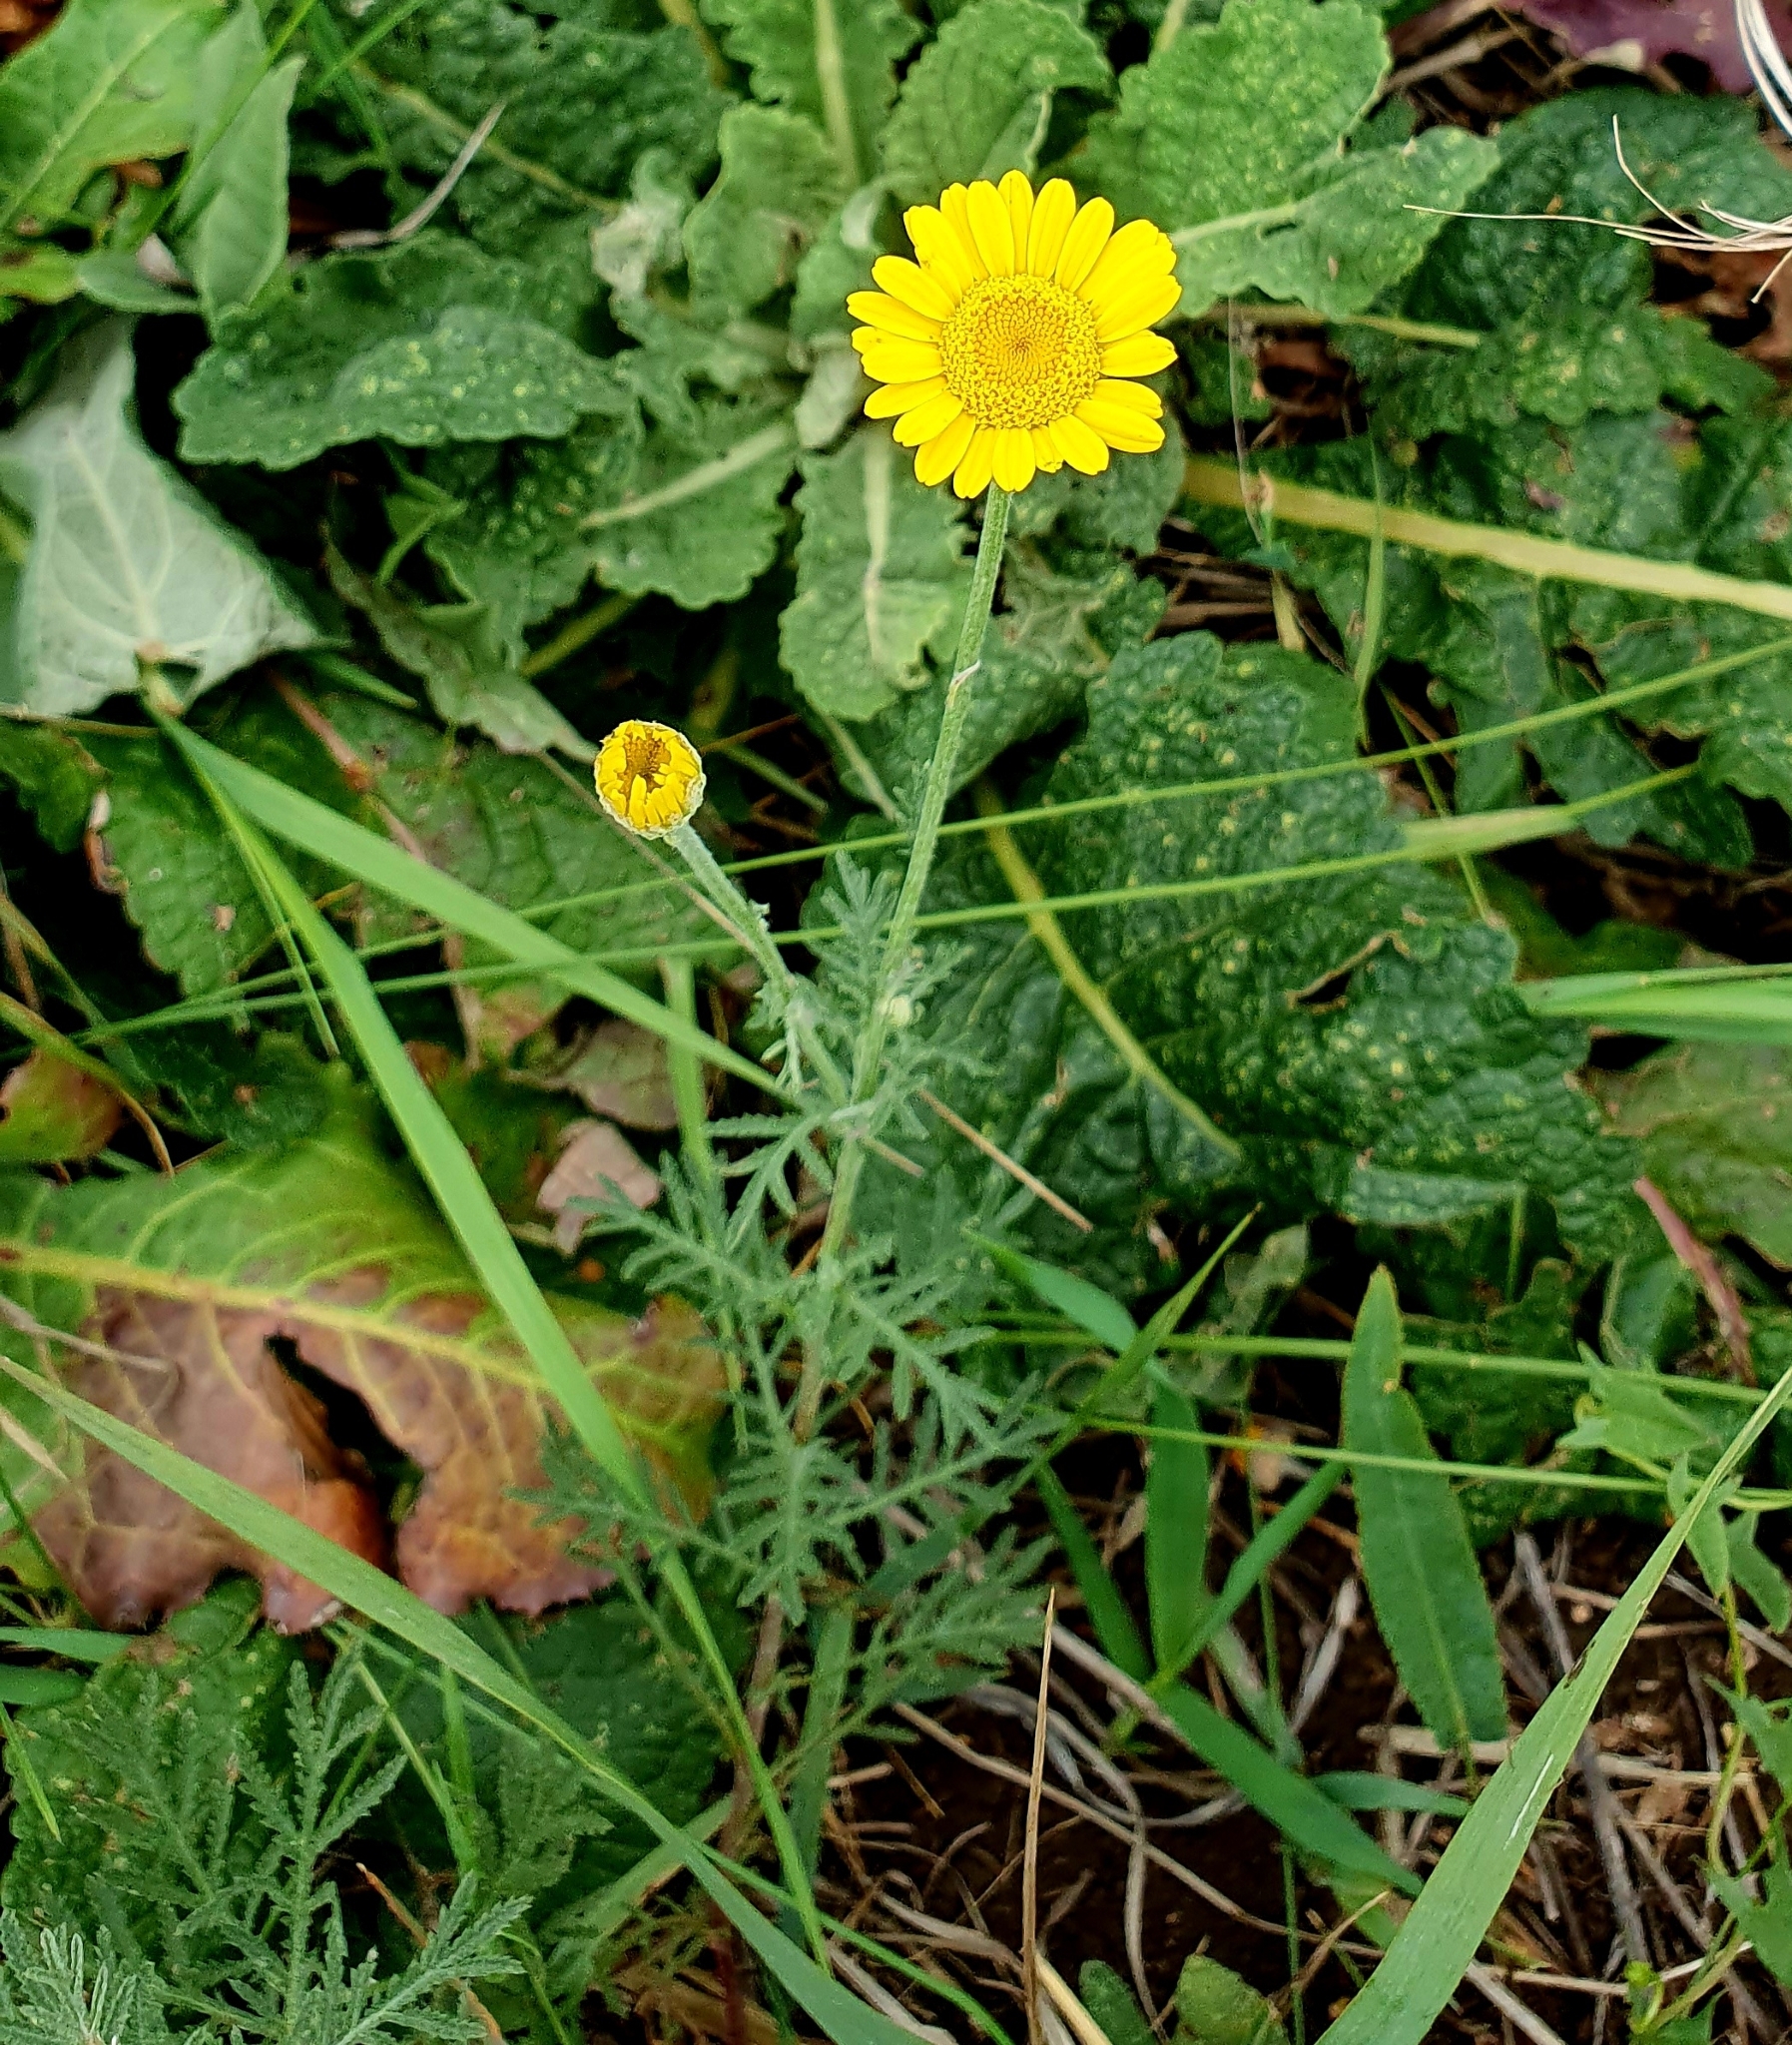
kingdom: Plantae
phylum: Tracheophyta
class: Magnoliopsida
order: Asterales
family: Asteraceae
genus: Cota
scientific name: Cota tinctoria
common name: Golden chamomile
